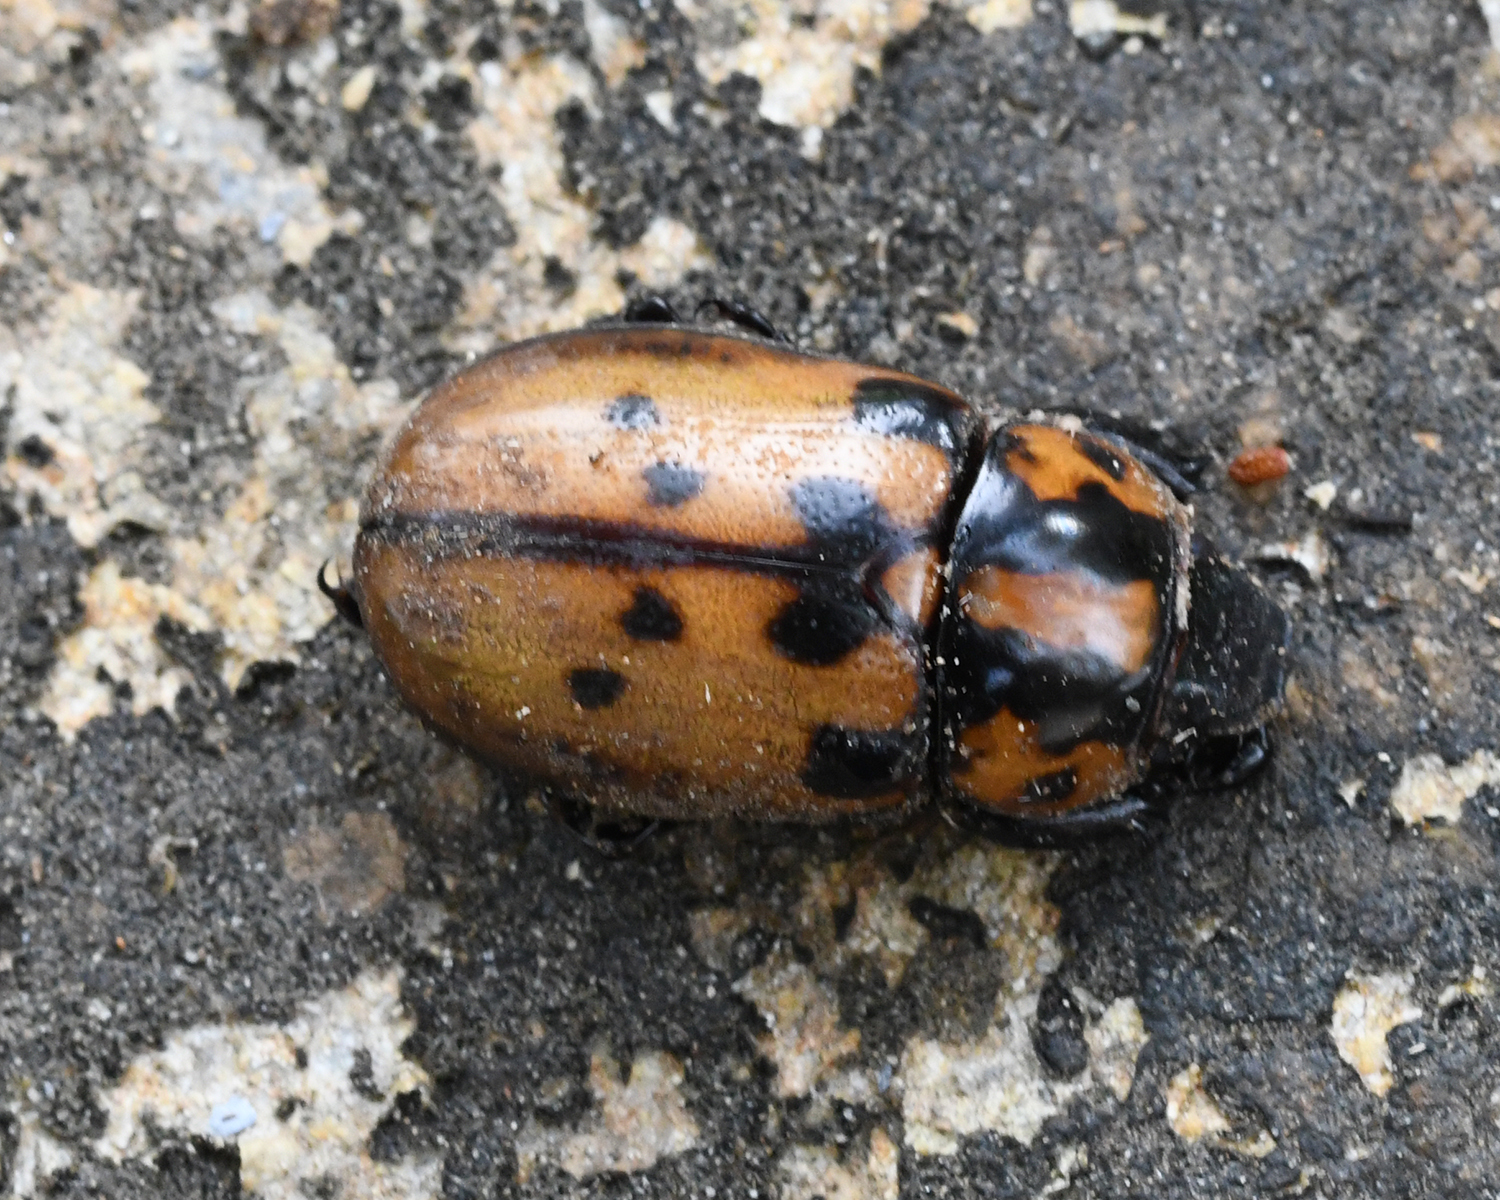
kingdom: Animalia
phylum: Arthropoda
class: Insecta
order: Coleoptera
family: Scarabaeidae
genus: Cyclocephala
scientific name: Cyclocephala mafaffa
